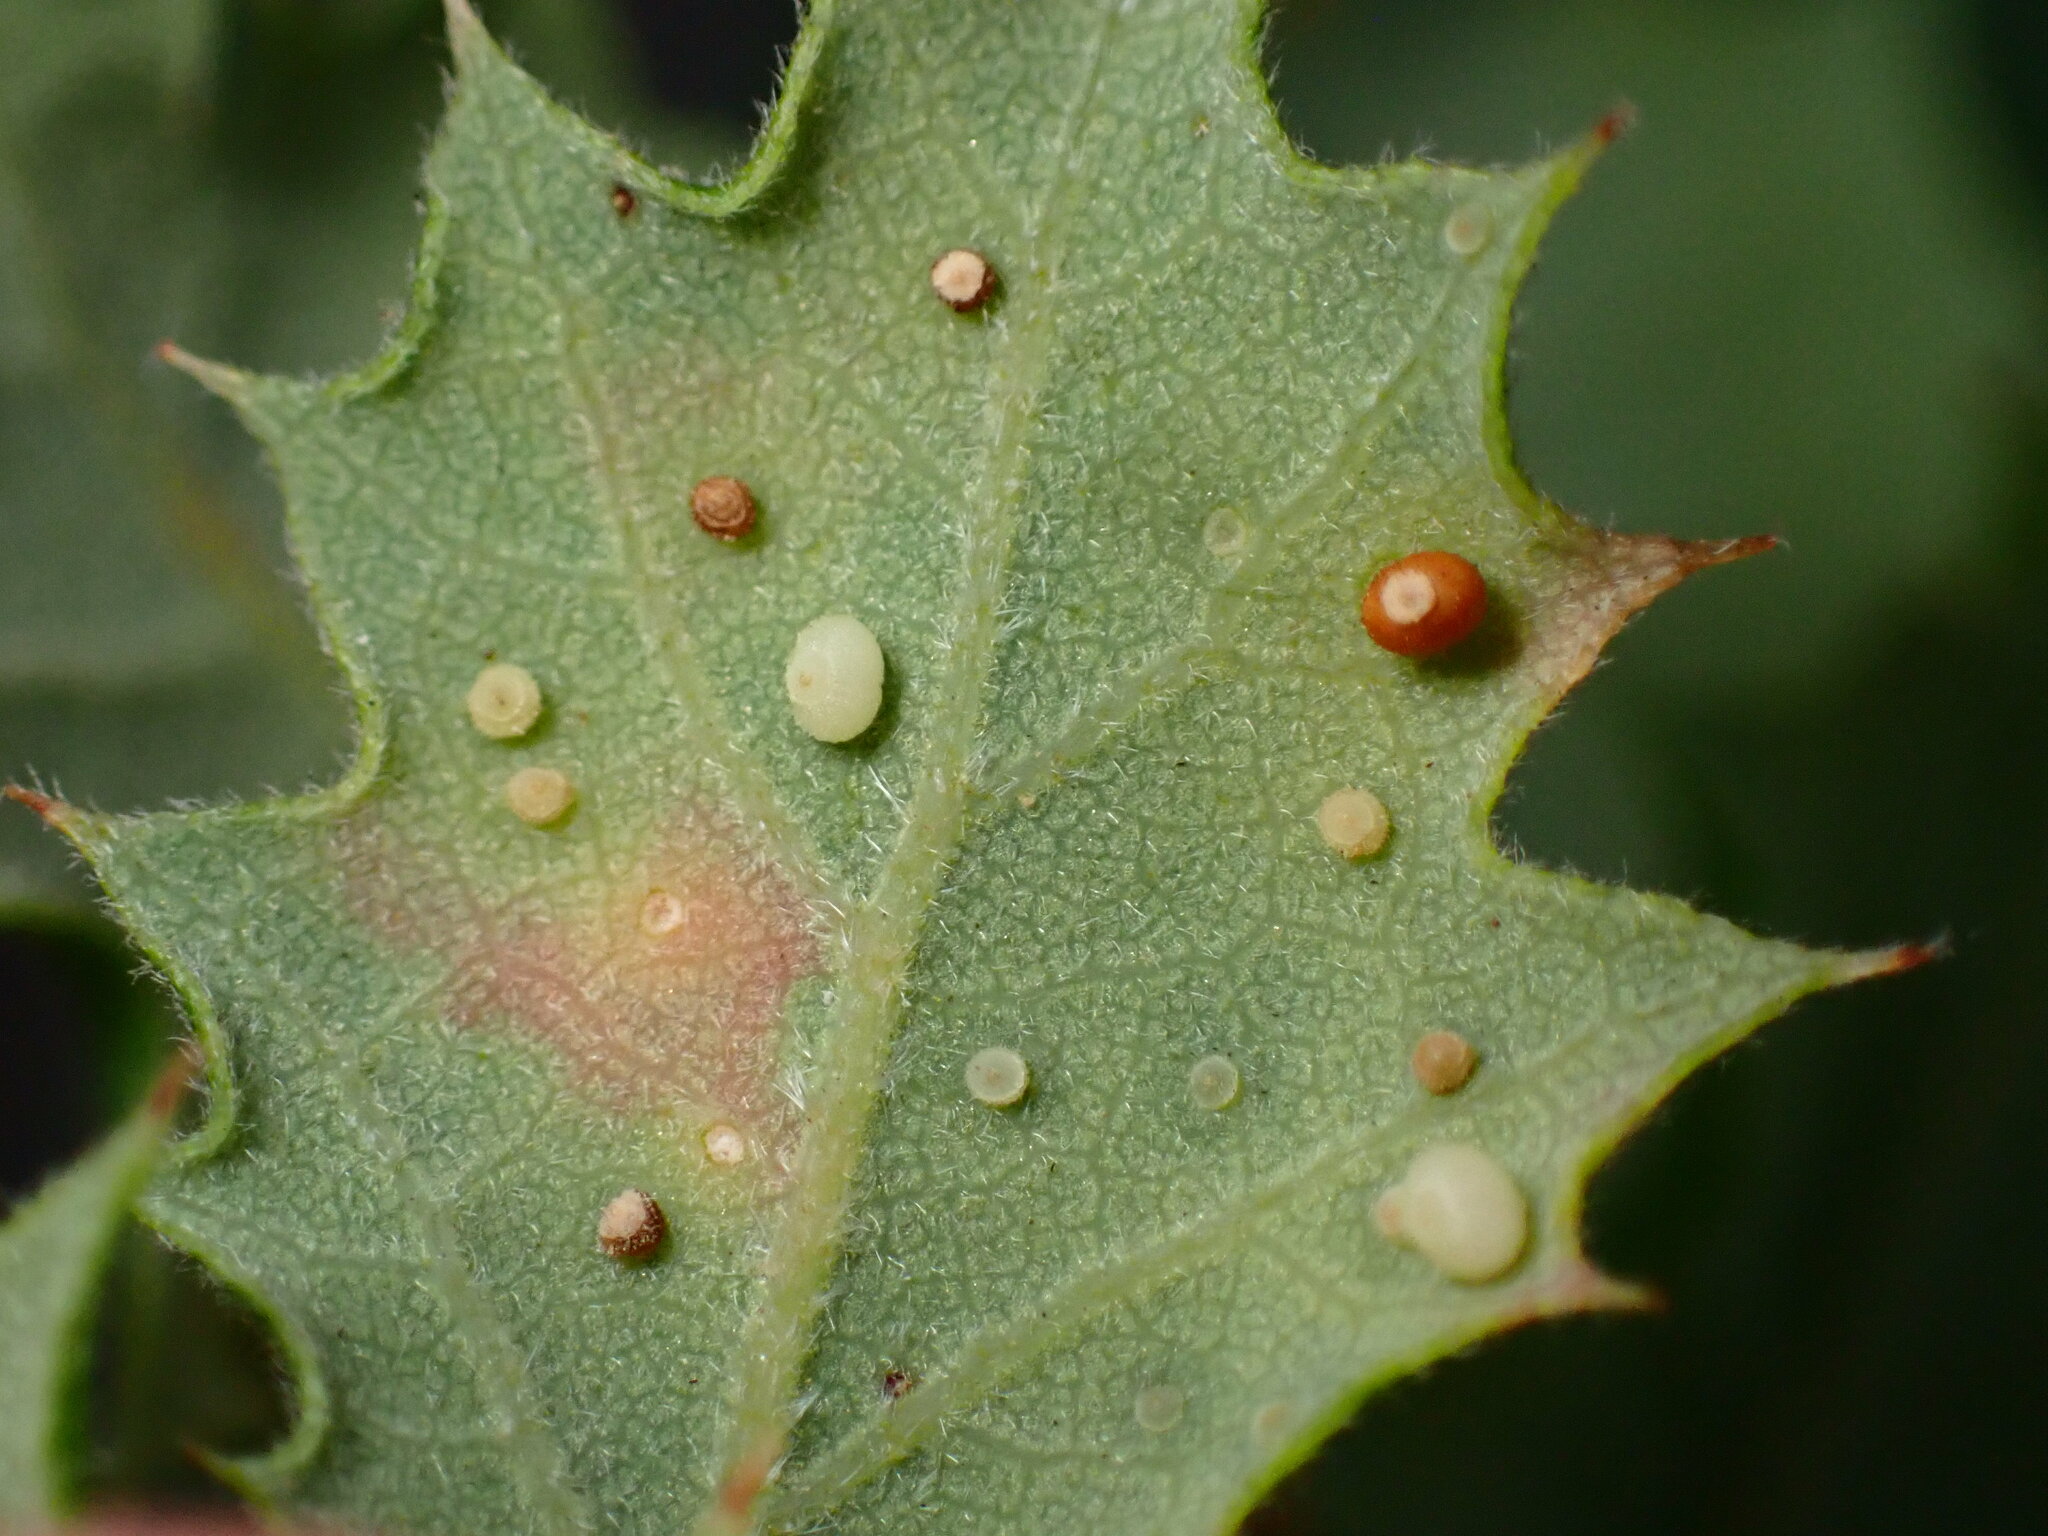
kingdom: Animalia
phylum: Arthropoda
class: Insecta
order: Hymenoptera
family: Cynipidae
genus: Neuroterus
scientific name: Neuroterus saltarius
